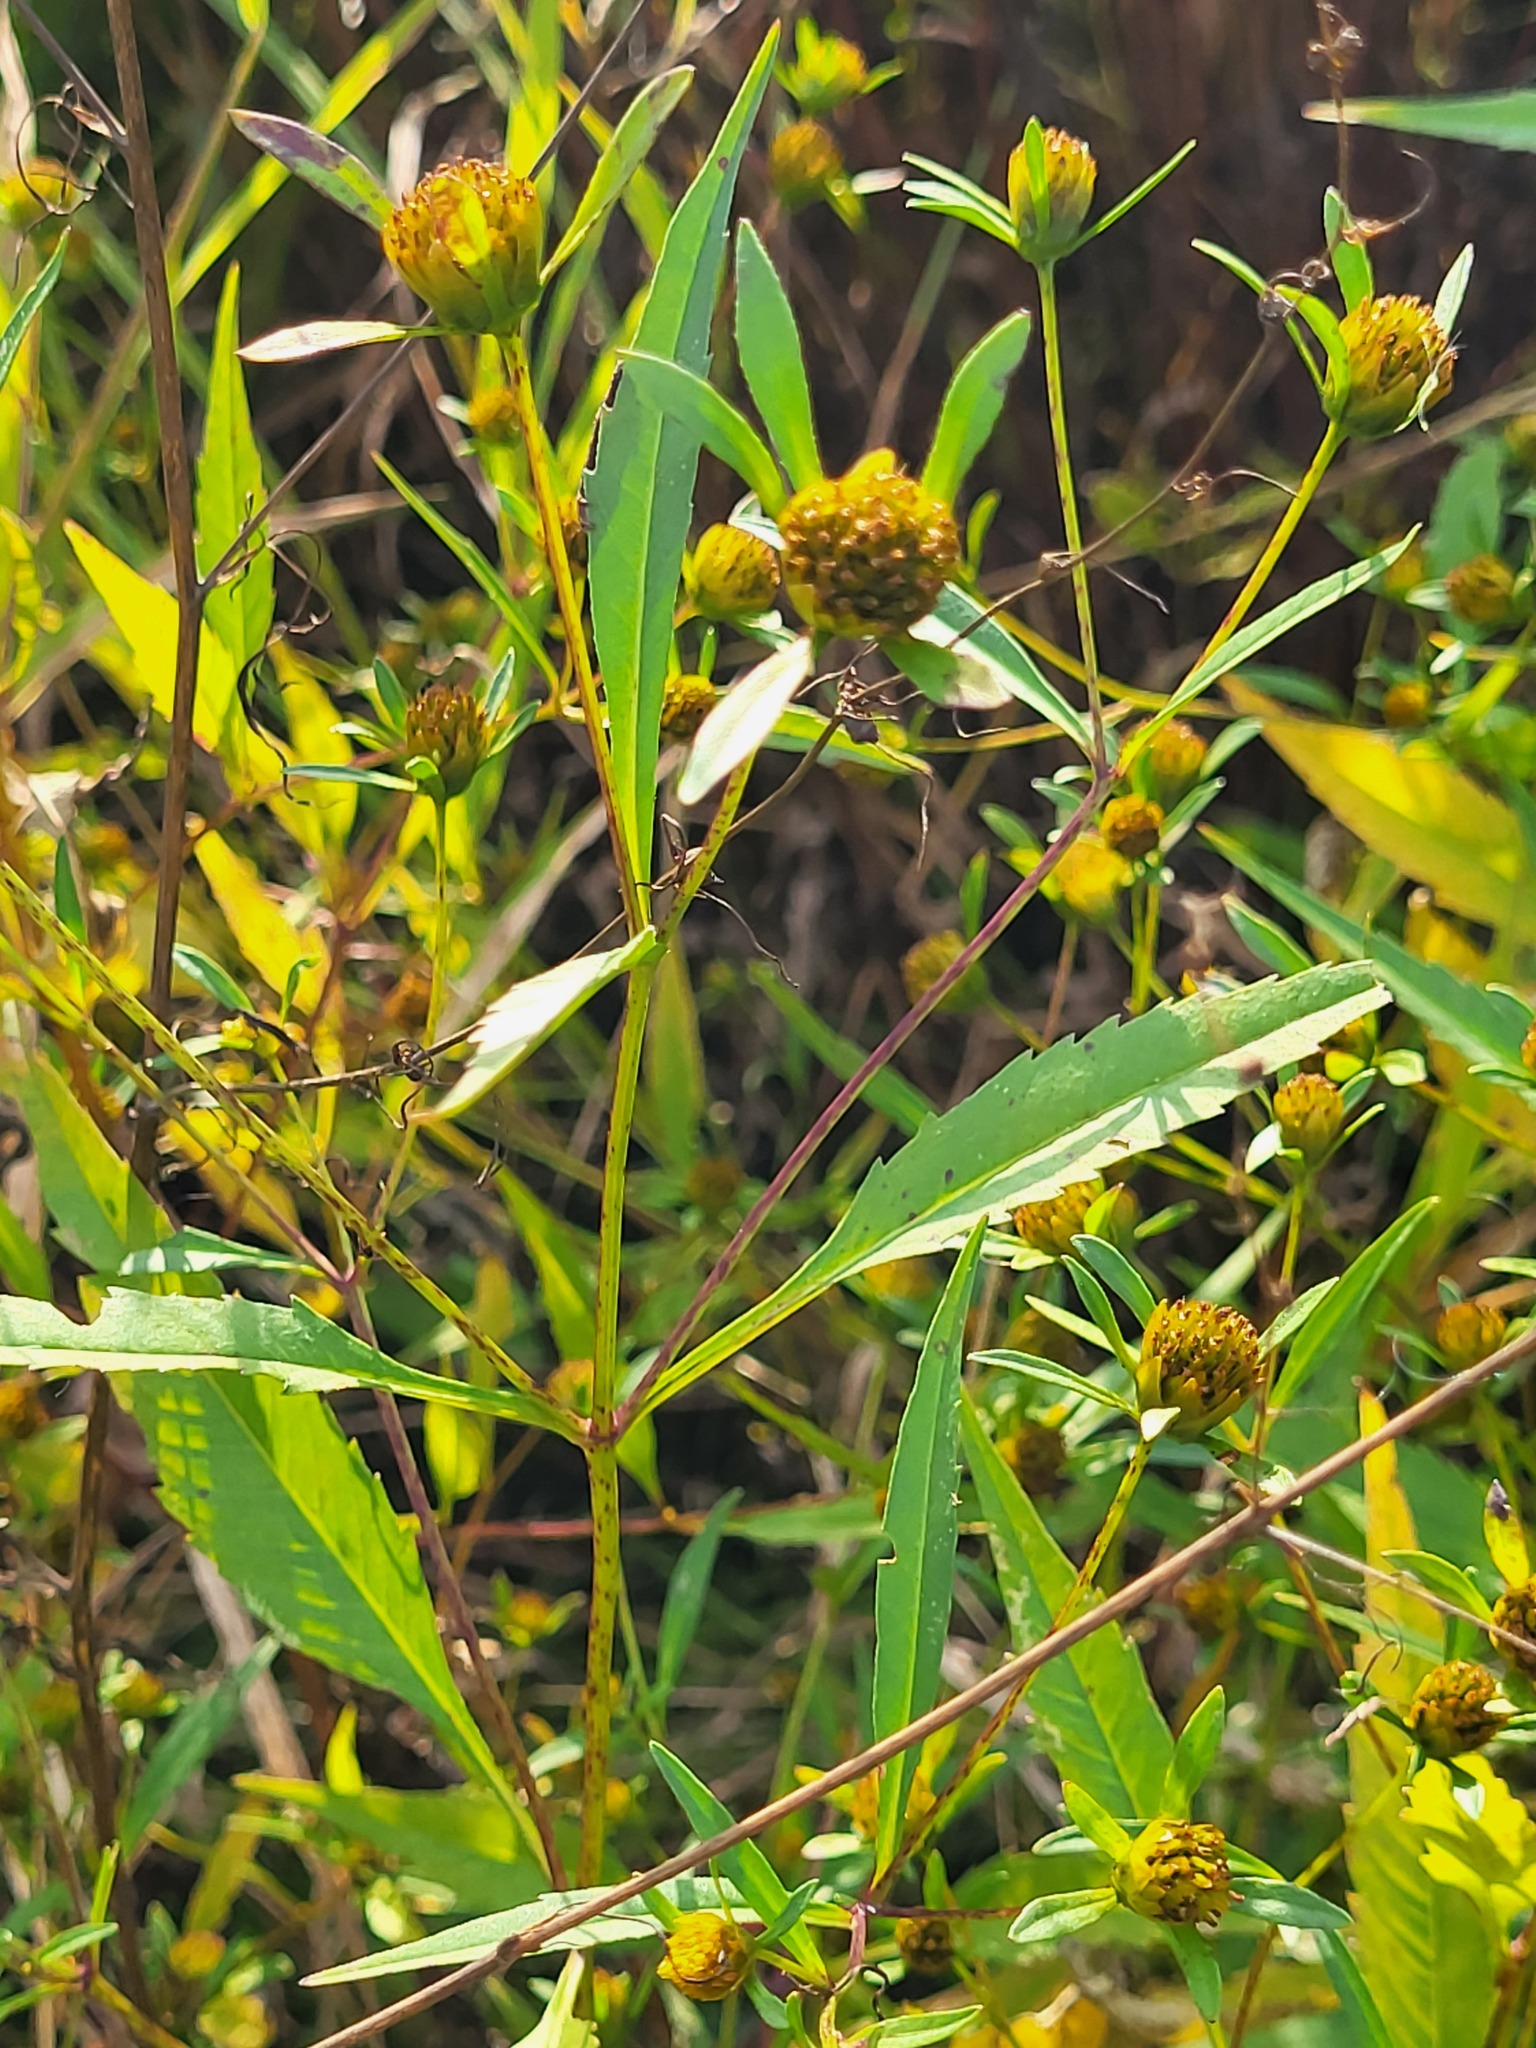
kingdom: Plantae
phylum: Tracheophyta
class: Magnoliopsida
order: Asterales
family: Asteraceae
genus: Bidens
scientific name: Bidens connata
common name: London bur-marigold
